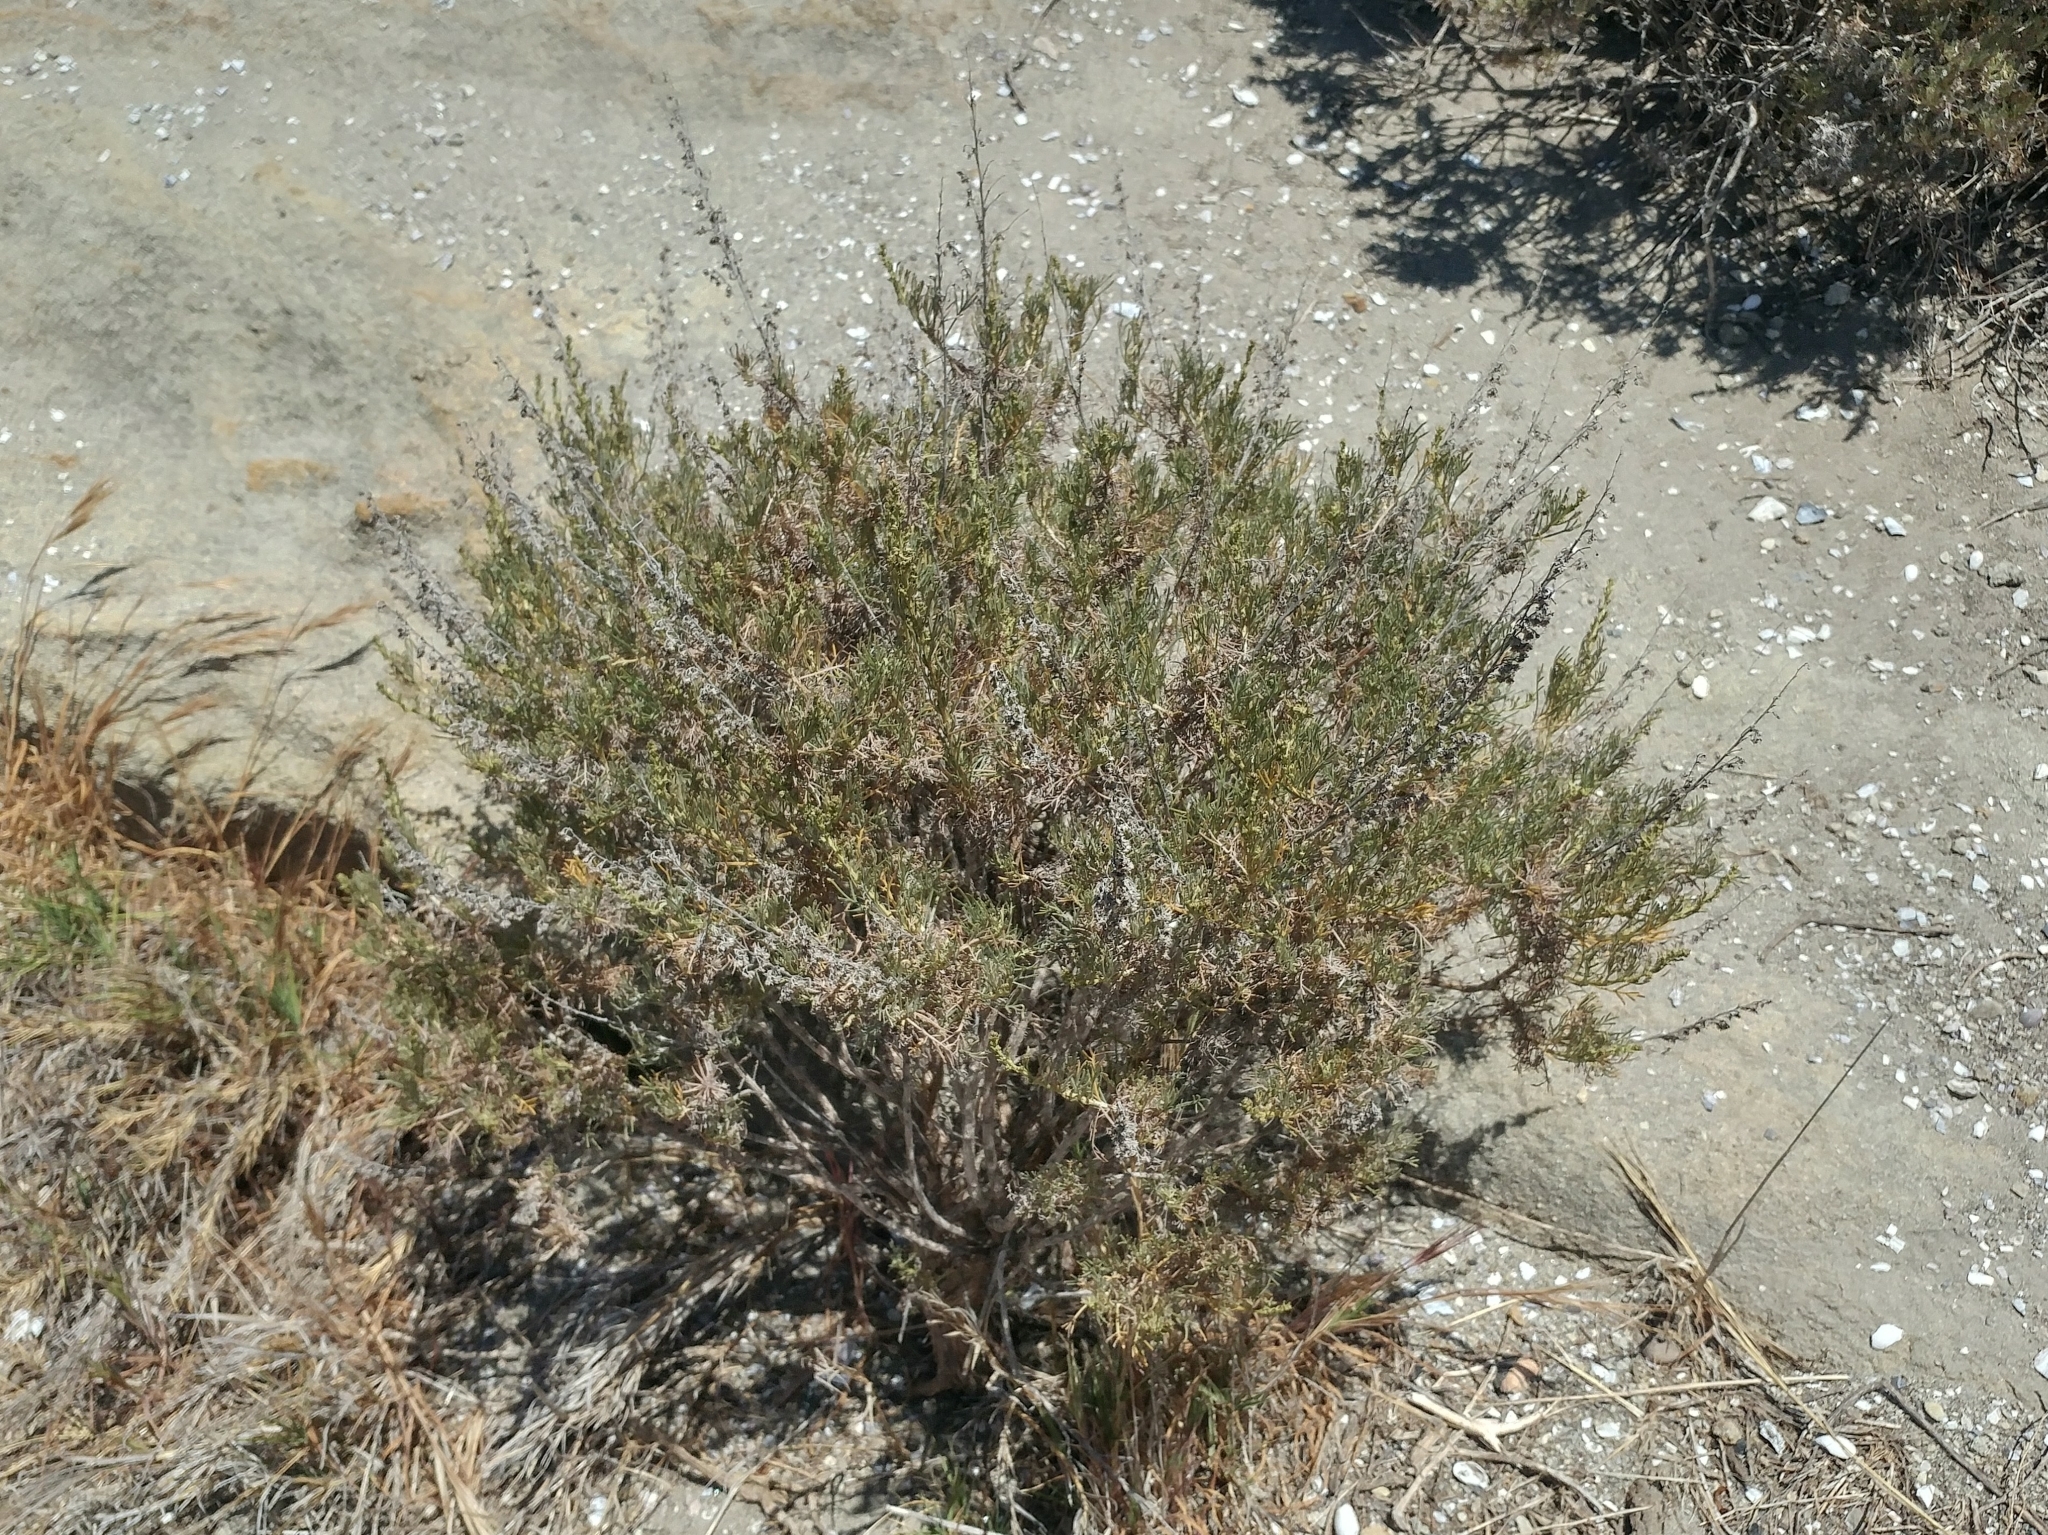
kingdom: Plantae
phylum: Tracheophyta
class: Magnoliopsida
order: Asterales
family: Asteraceae
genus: Artemisia
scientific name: Artemisia californica
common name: California sagebrush
